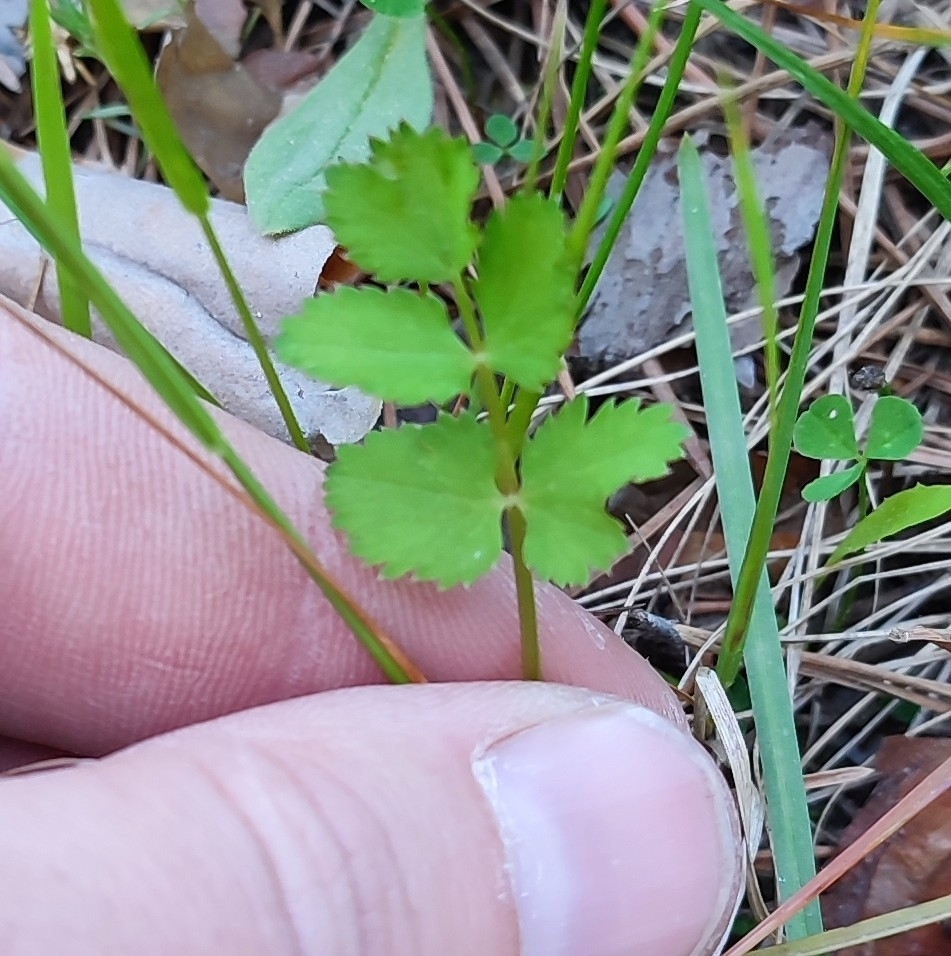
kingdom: Plantae
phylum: Tracheophyta
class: Magnoliopsida
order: Apiales
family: Apiaceae
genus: Pimpinella
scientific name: Pimpinella saxifraga
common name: Burnet-saxifrage
